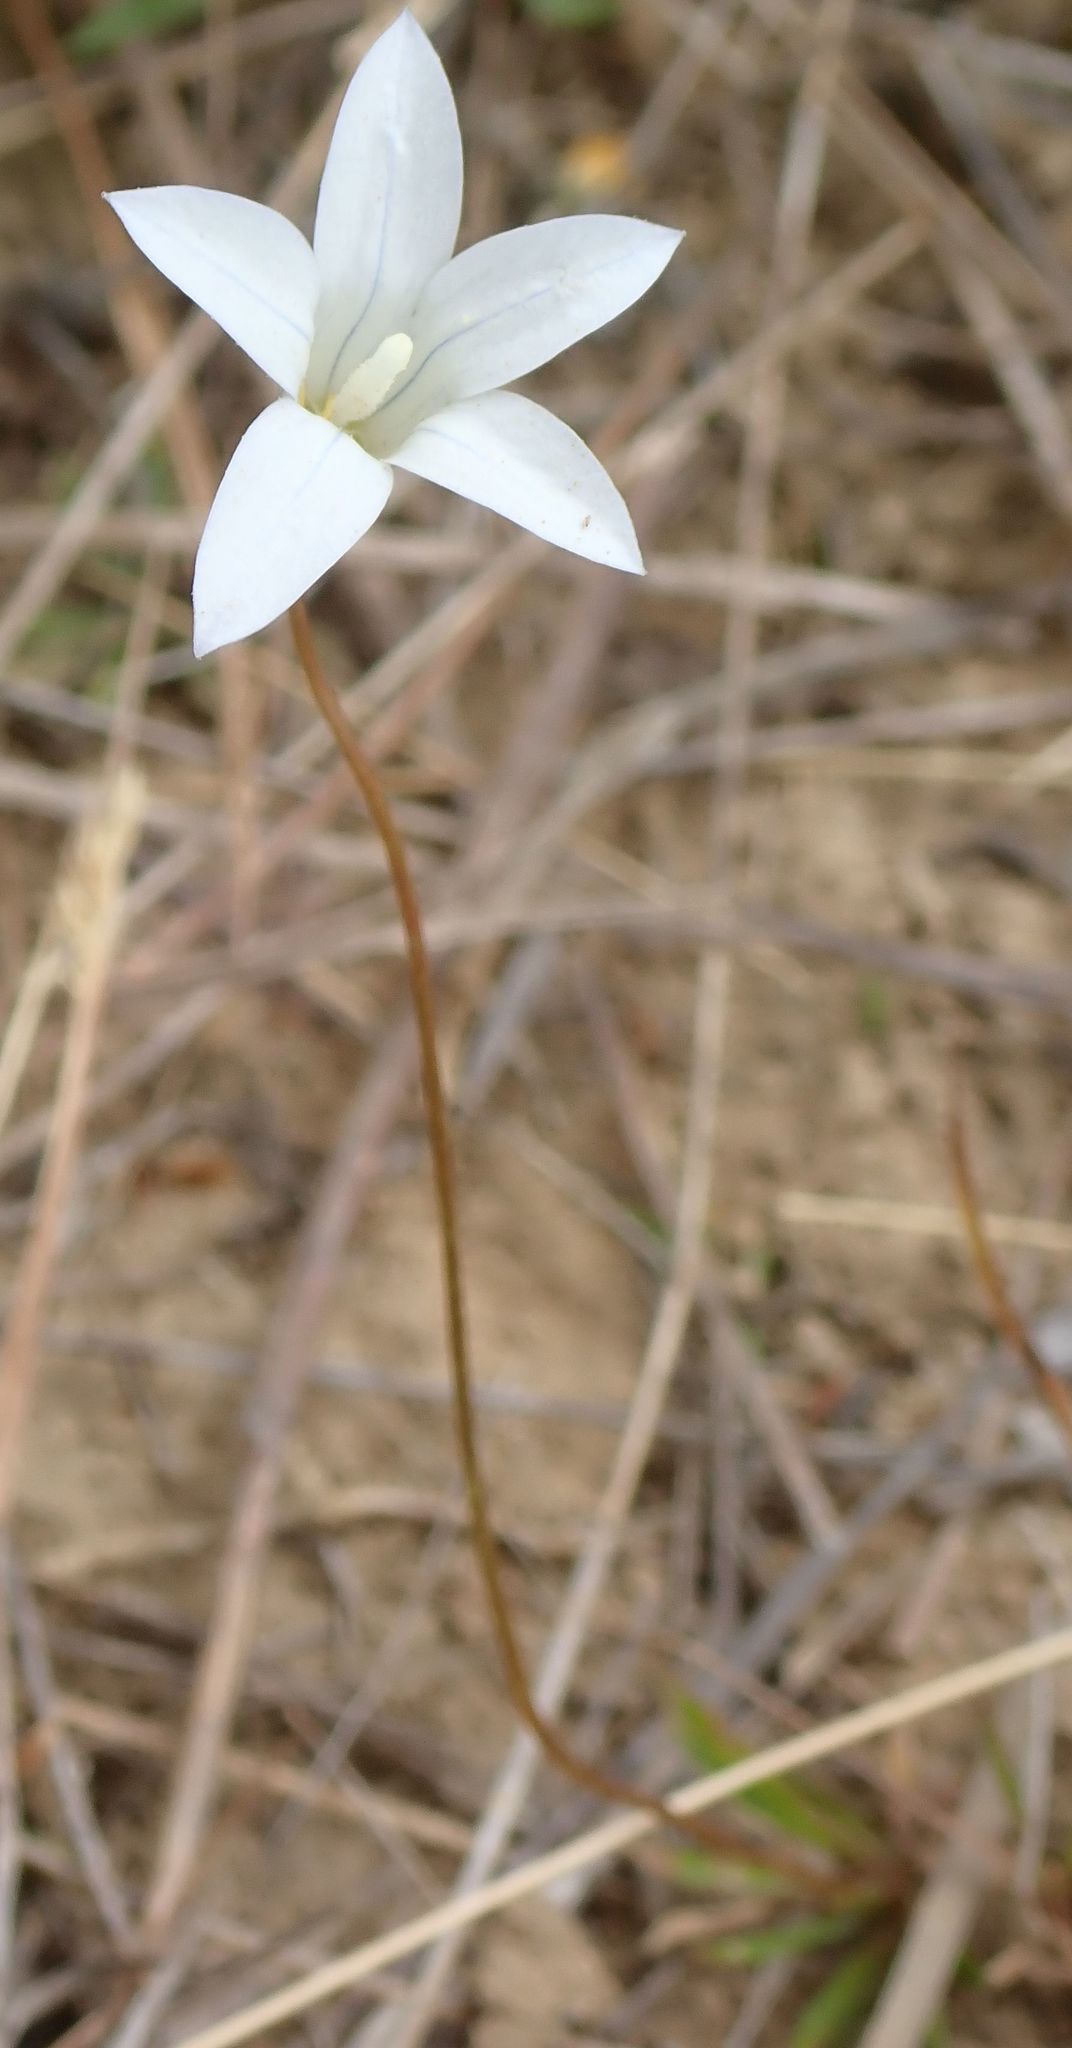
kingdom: Plantae
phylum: Tracheophyta
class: Magnoliopsida
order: Asterales
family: Campanulaceae
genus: Wahlenbergia
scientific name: Wahlenbergia albomarginata
